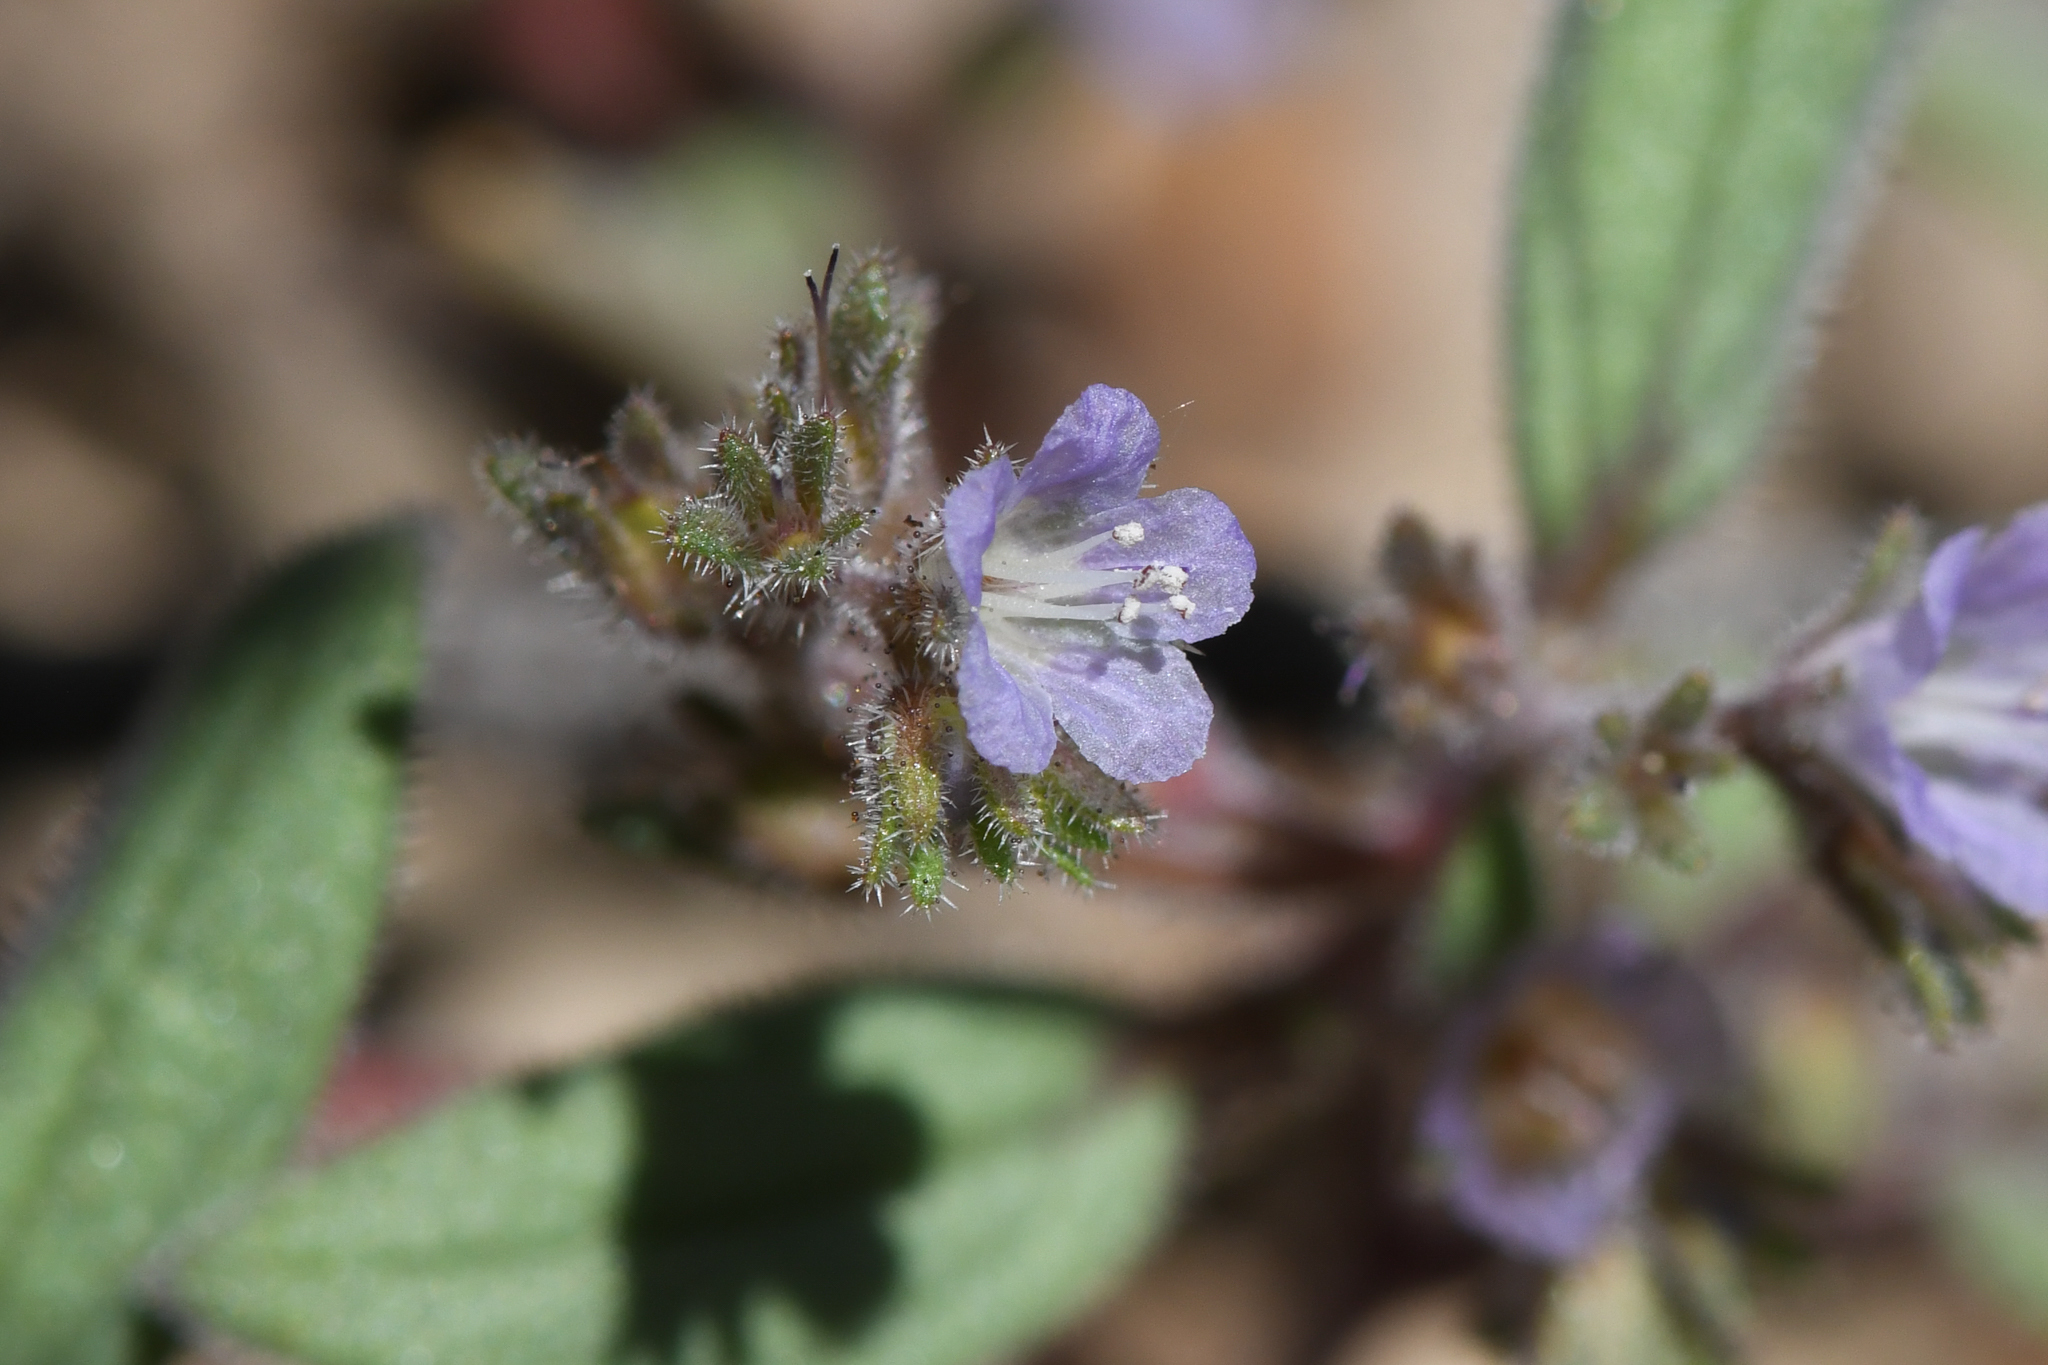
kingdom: Plantae
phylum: Tracheophyta
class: Magnoliopsida
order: Boraginales
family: Hydrophyllaceae
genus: Phacelia
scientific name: Phacelia austromontana
